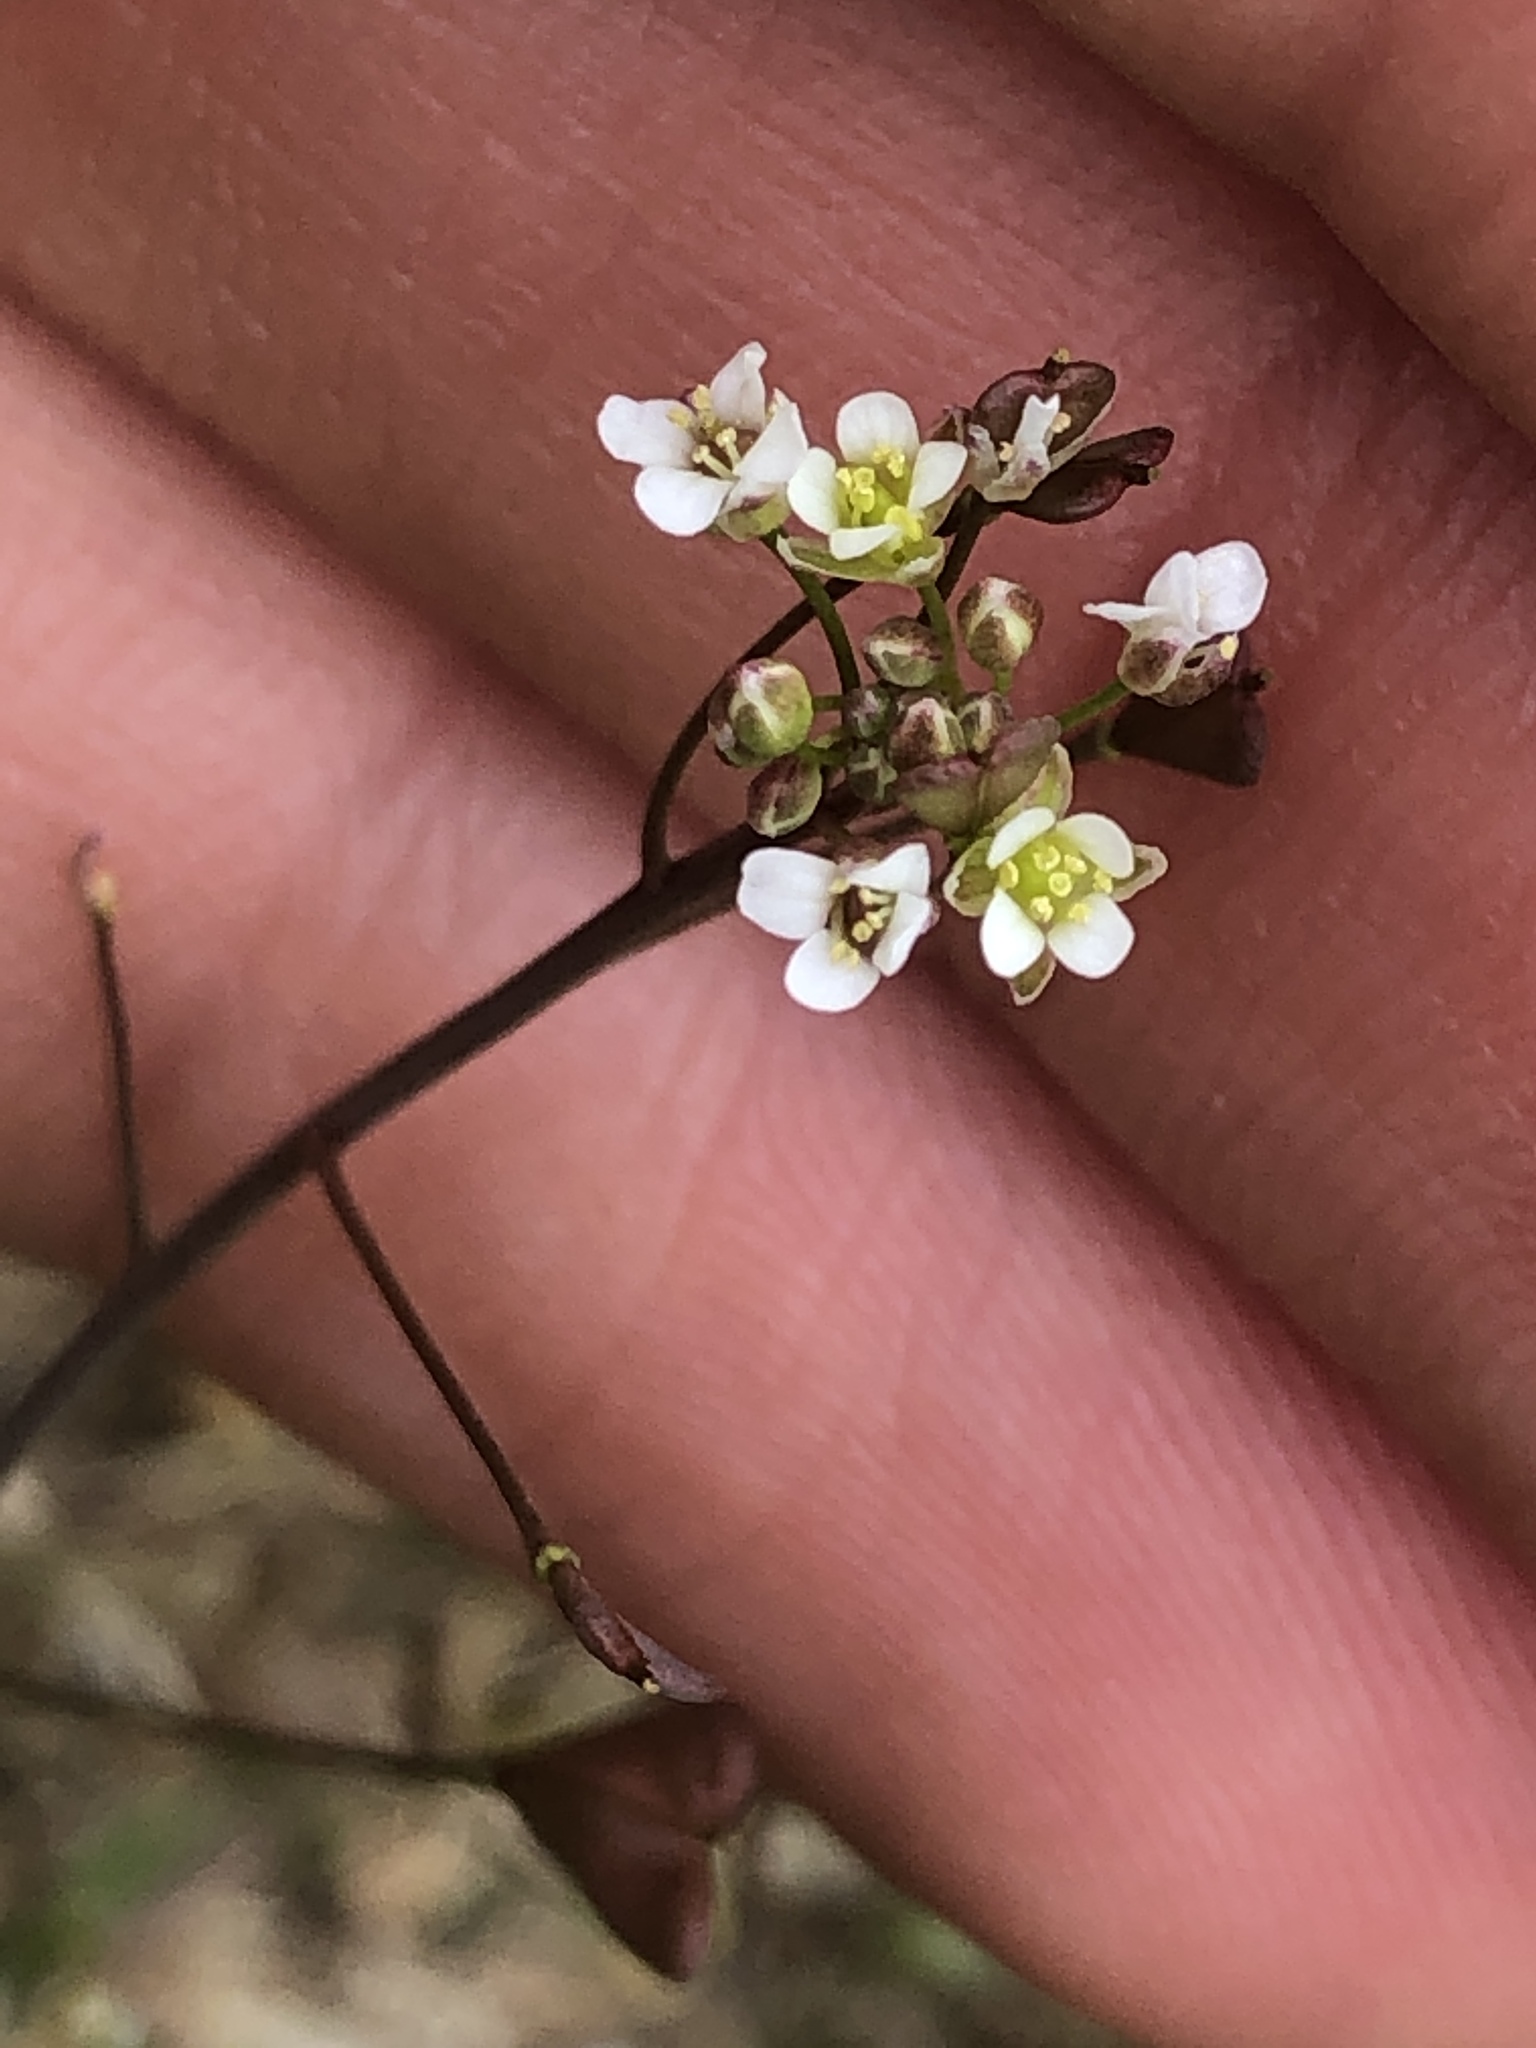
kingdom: Plantae
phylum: Tracheophyta
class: Magnoliopsida
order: Brassicales
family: Brassicaceae
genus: Capsella
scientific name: Capsella bursa-pastoris
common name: Shepherd's purse
